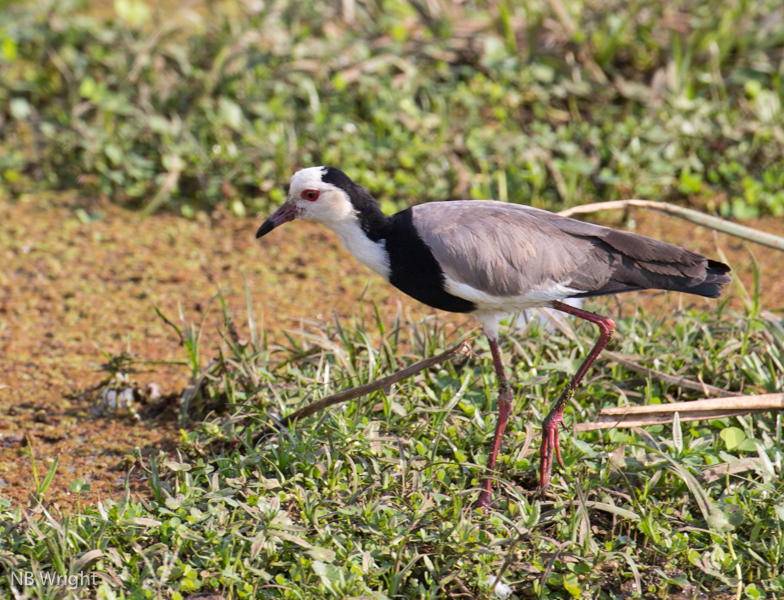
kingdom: Animalia
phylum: Chordata
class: Aves
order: Charadriiformes
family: Charadriidae
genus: Vanellus
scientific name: Vanellus crassirostris
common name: Long-toed lapwing
